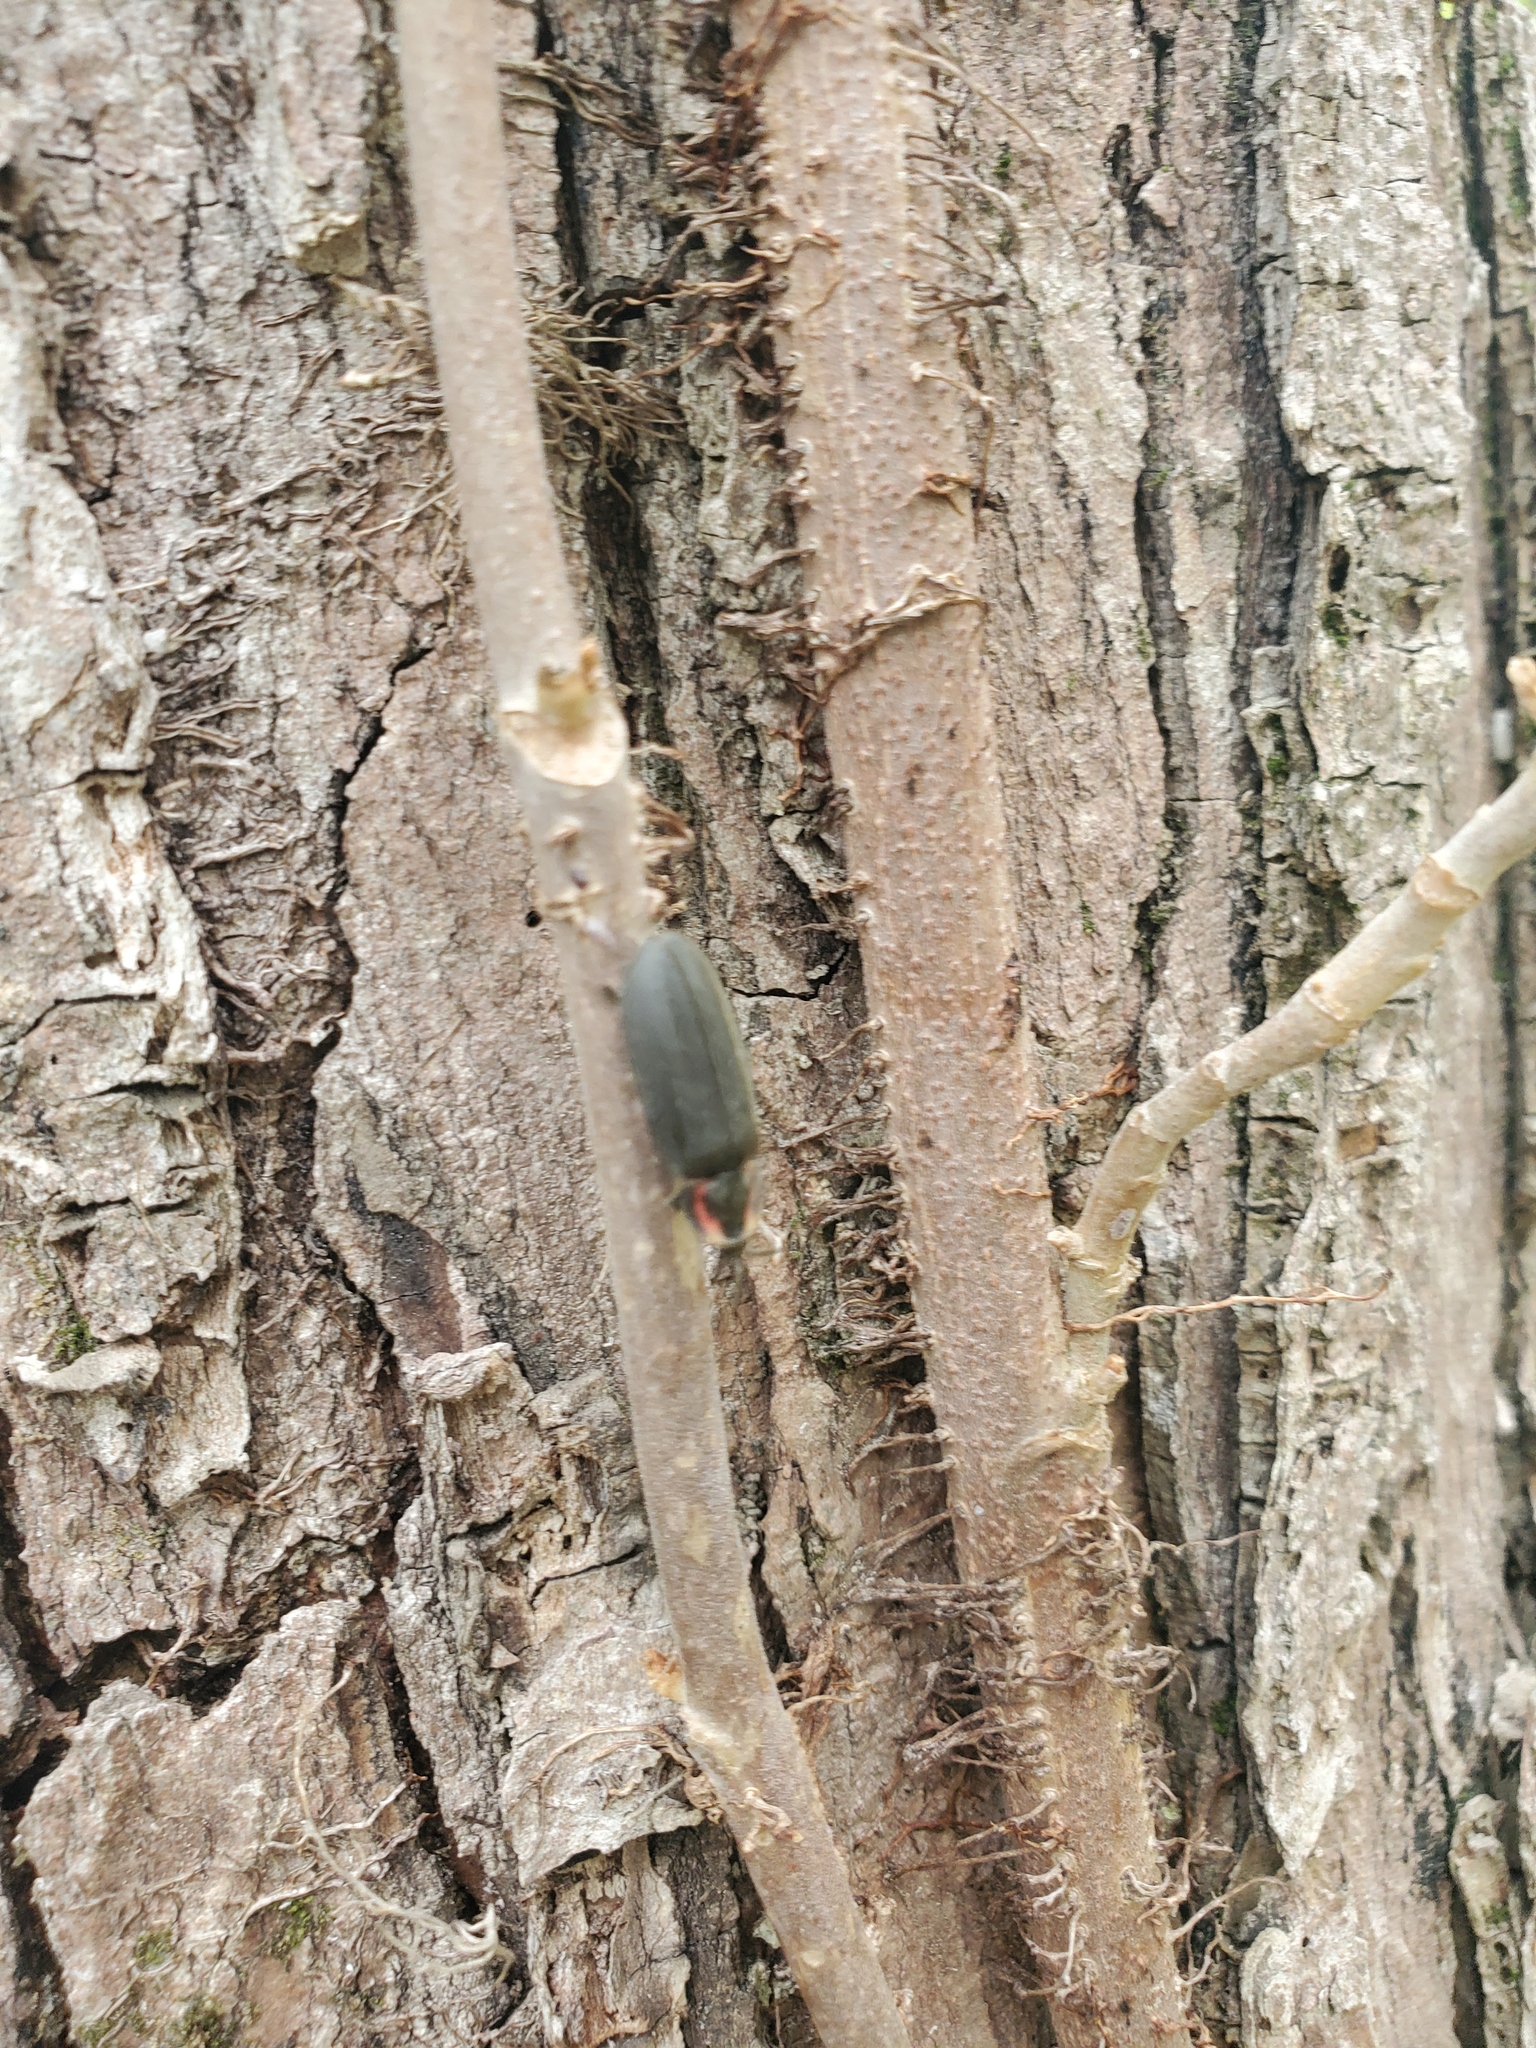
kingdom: Animalia
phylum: Arthropoda
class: Insecta
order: Coleoptera
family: Lampyridae
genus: Photinus
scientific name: Photinus corrusca
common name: Winter firefly
